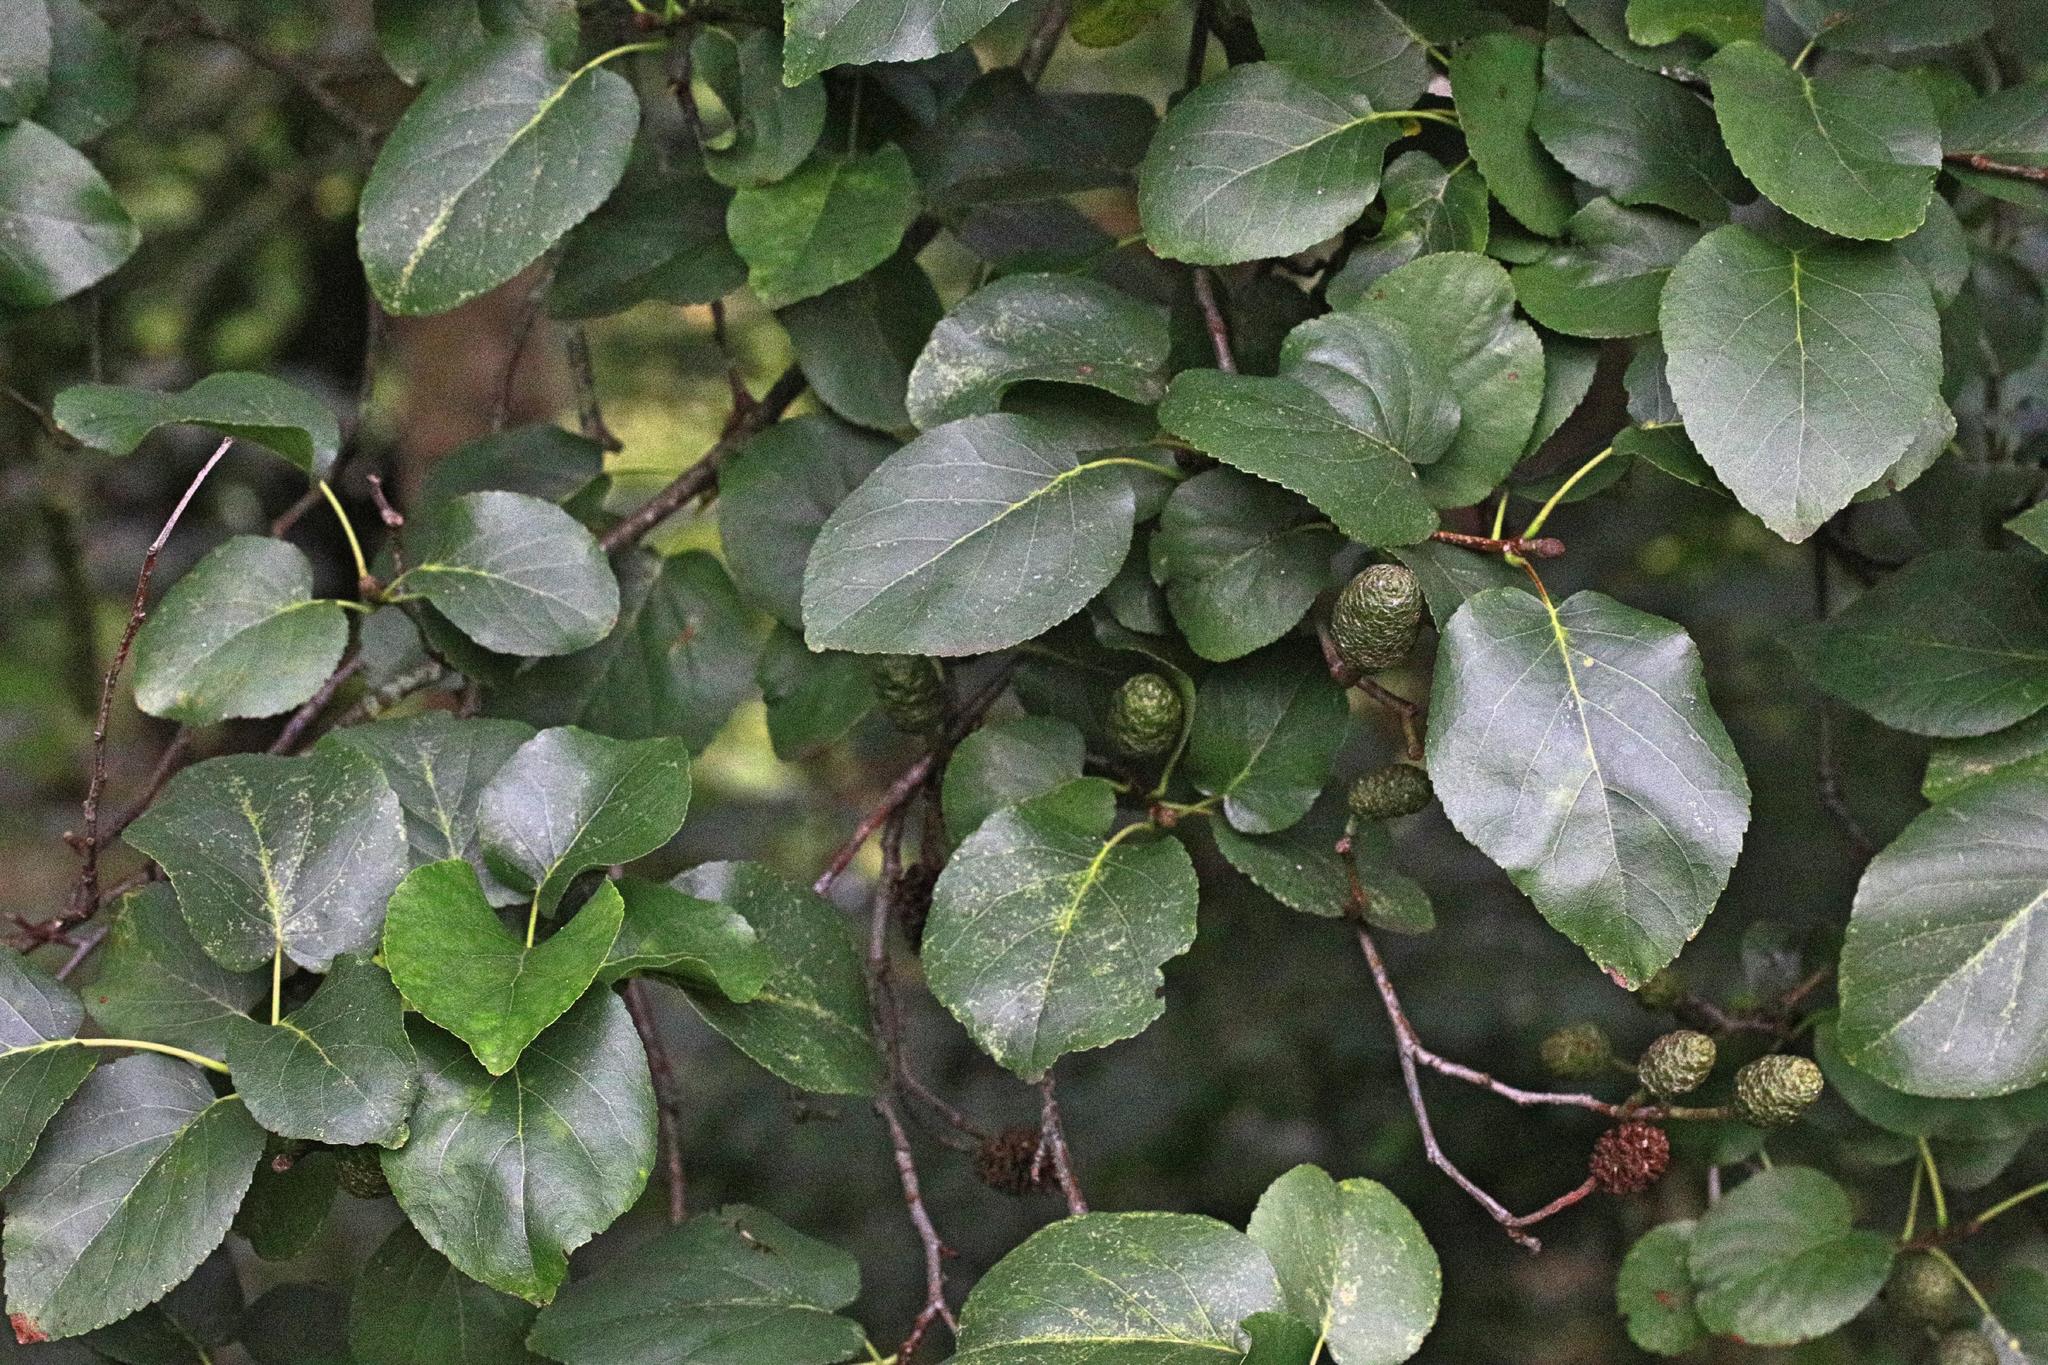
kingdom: Plantae
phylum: Tracheophyta
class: Magnoliopsida
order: Fagales
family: Betulaceae
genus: Alnus
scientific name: Alnus cordata
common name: Italian alder
